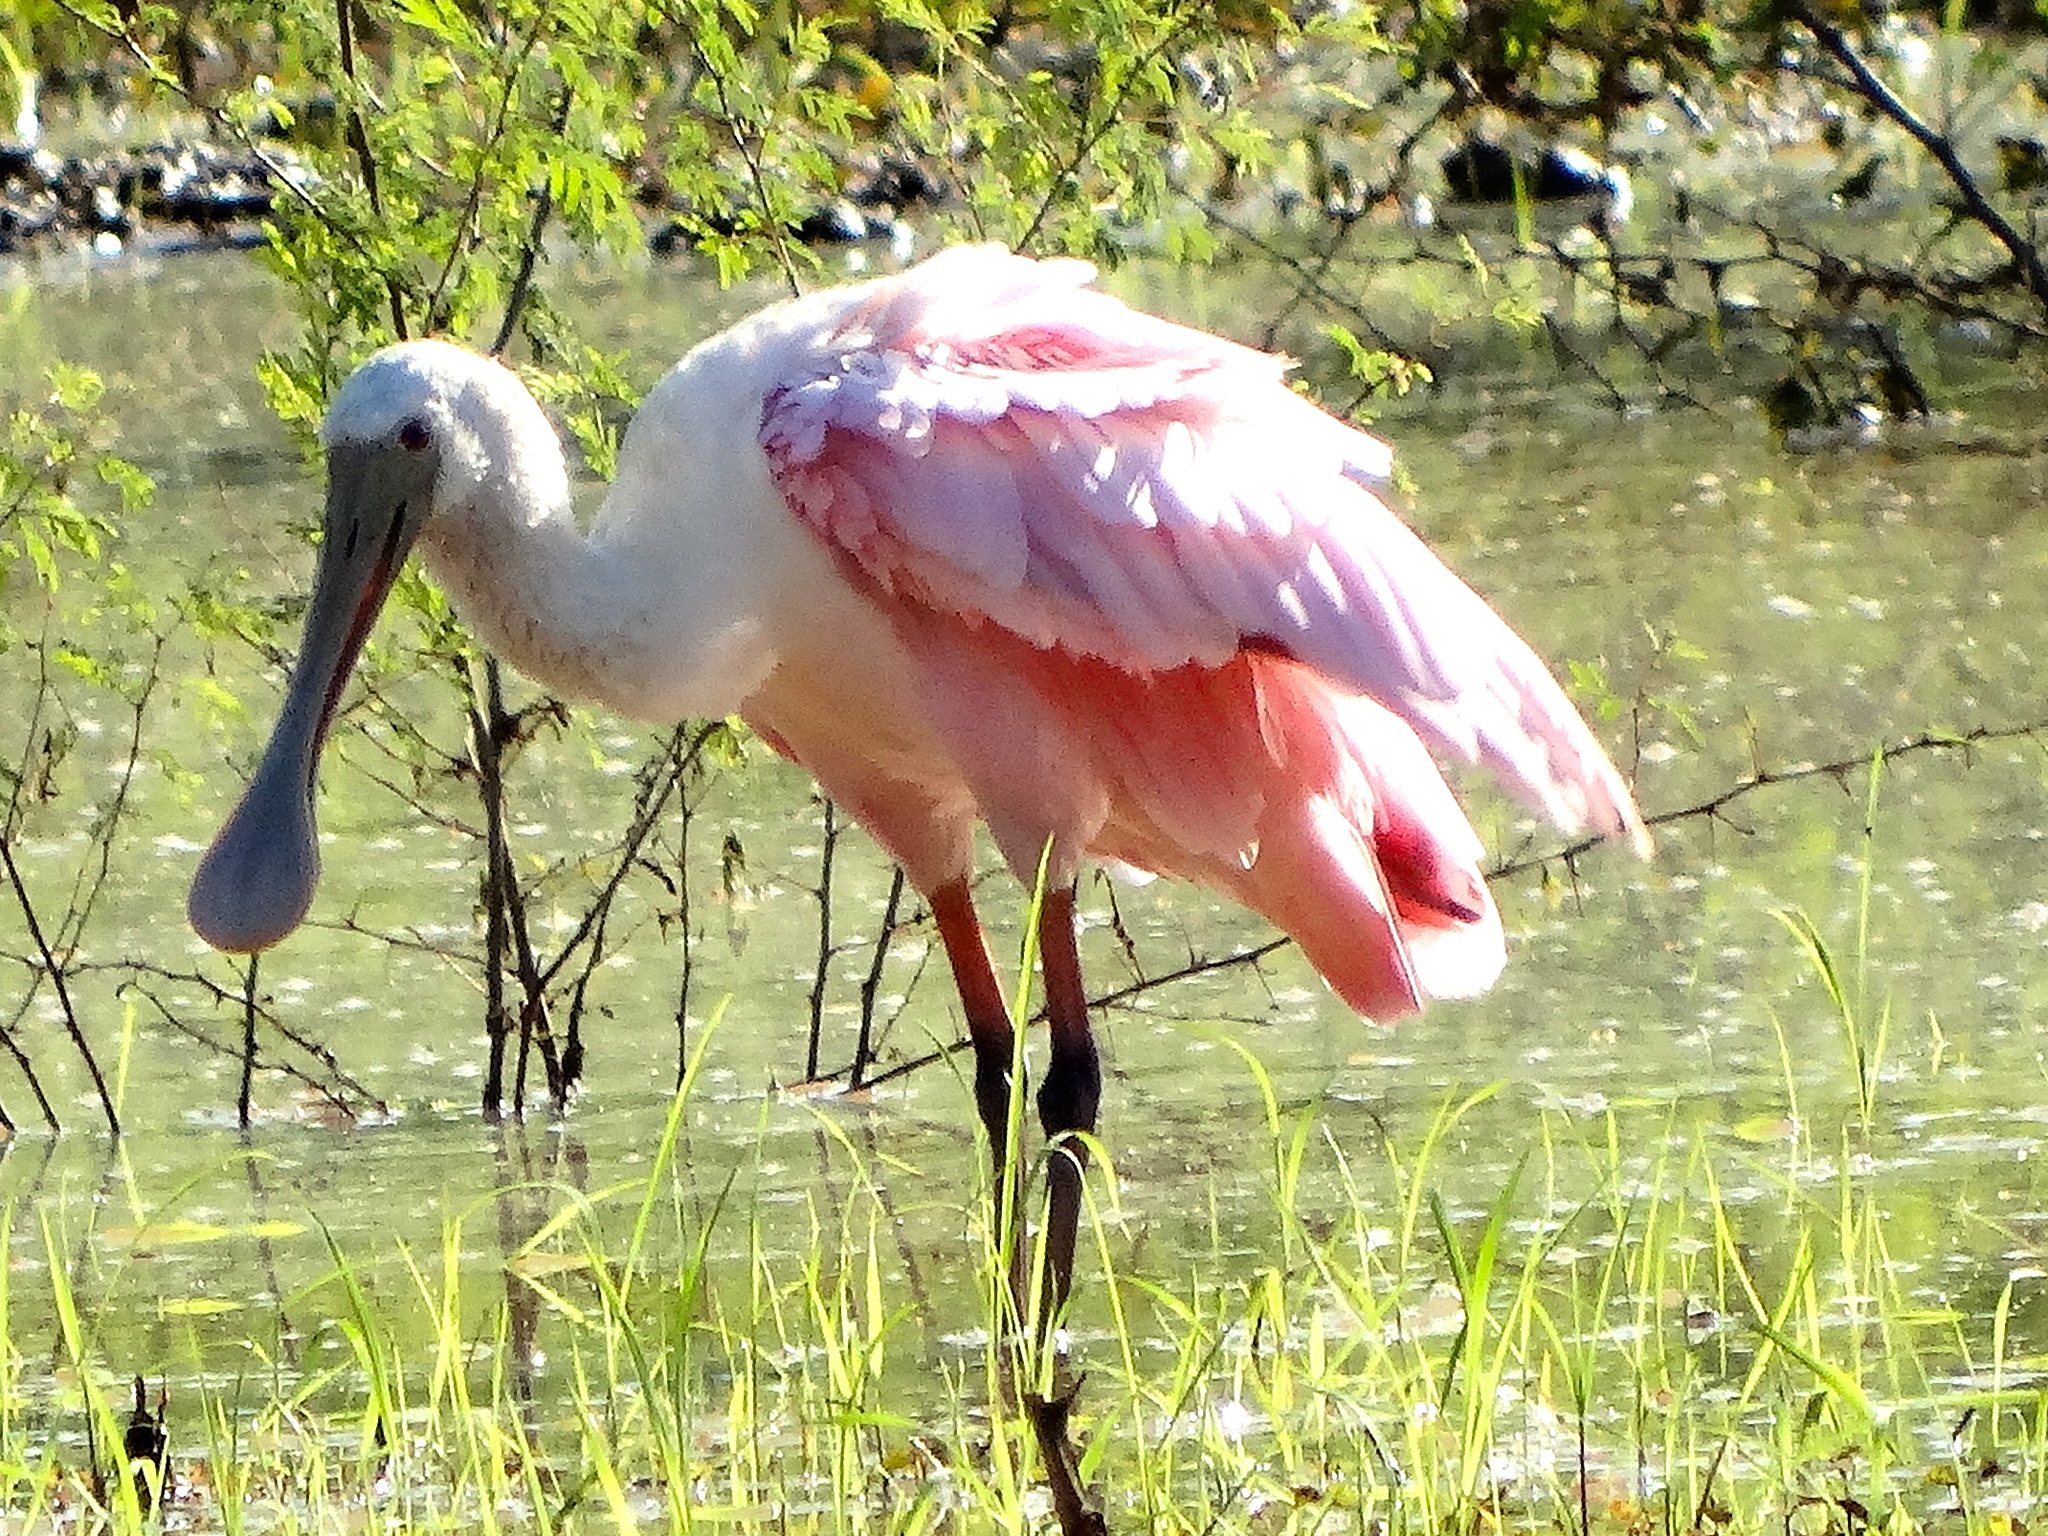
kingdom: Animalia
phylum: Chordata
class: Aves
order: Pelecaniformes
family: Threskiornithidae
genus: Platalea
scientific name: Platalea ajaja
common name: Roseate spoonbill
